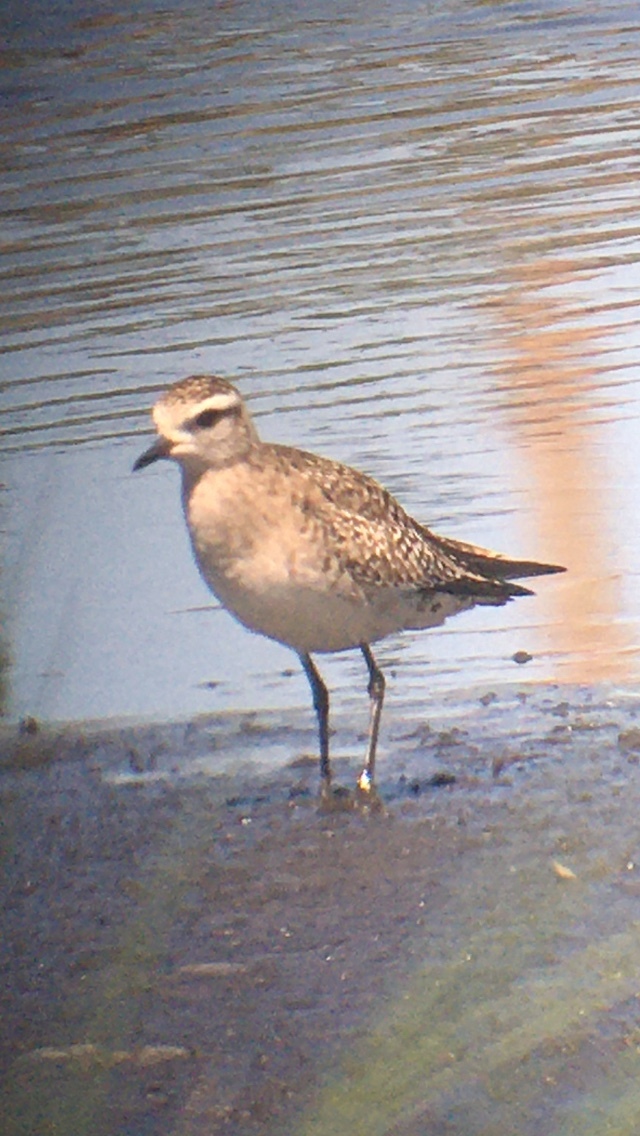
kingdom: Animalia
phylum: Chordata
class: Aves
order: Charadriiformes
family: Charadriidae
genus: Pluvialis
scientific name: Pluvialis dominica
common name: American golden plover
